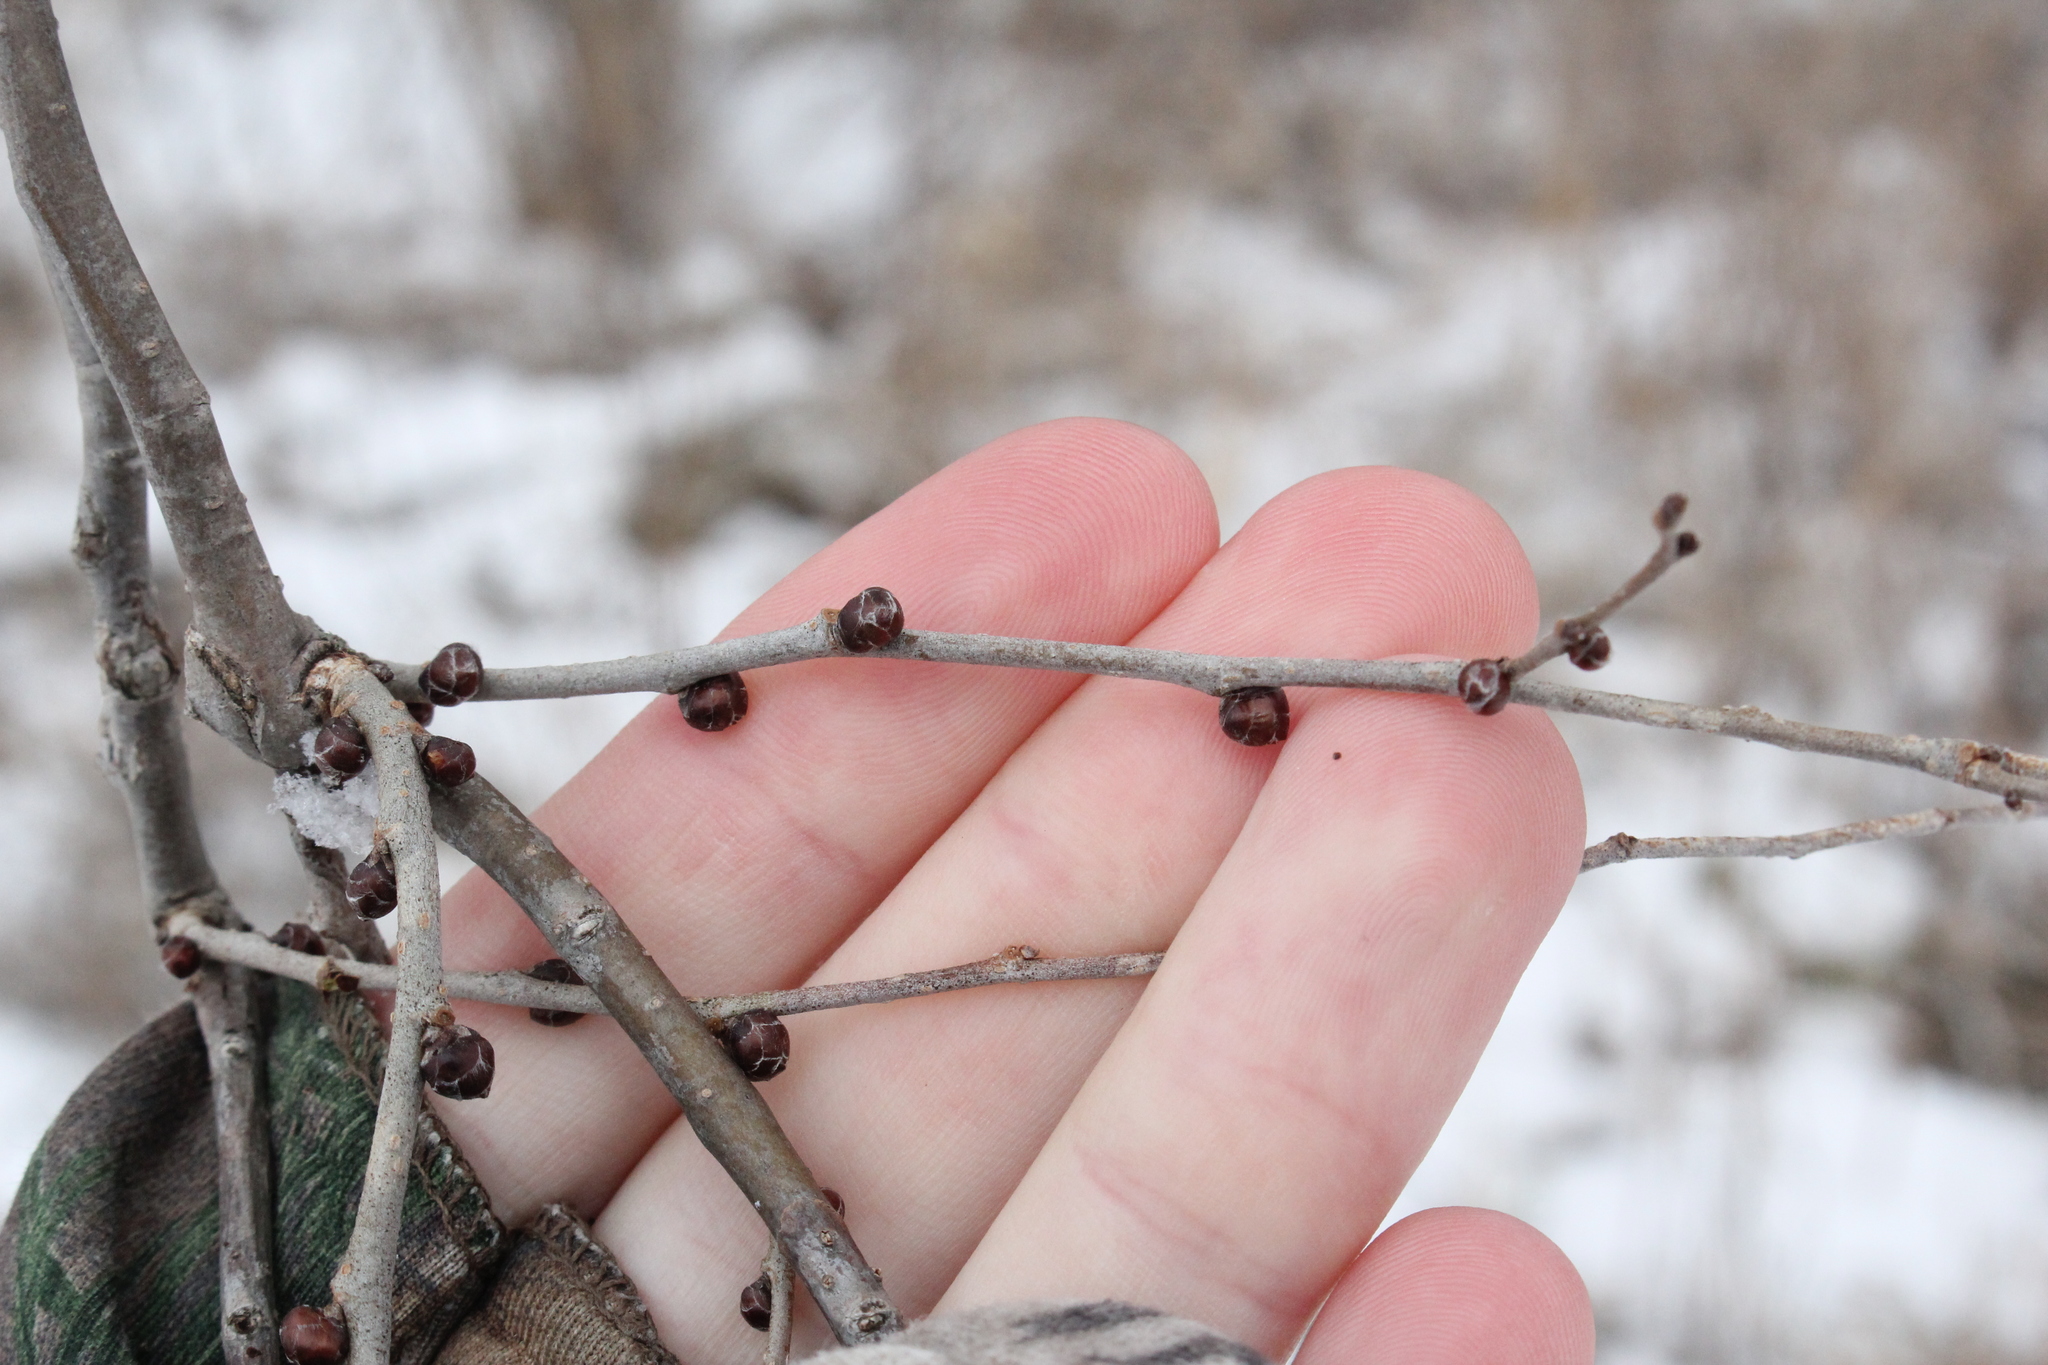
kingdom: Plantae
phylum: Tracheophyta
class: Magnoliopsida
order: Rosales
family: Ulmaceae
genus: Ulmus
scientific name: Ulmus pumila
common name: Siberian elm
